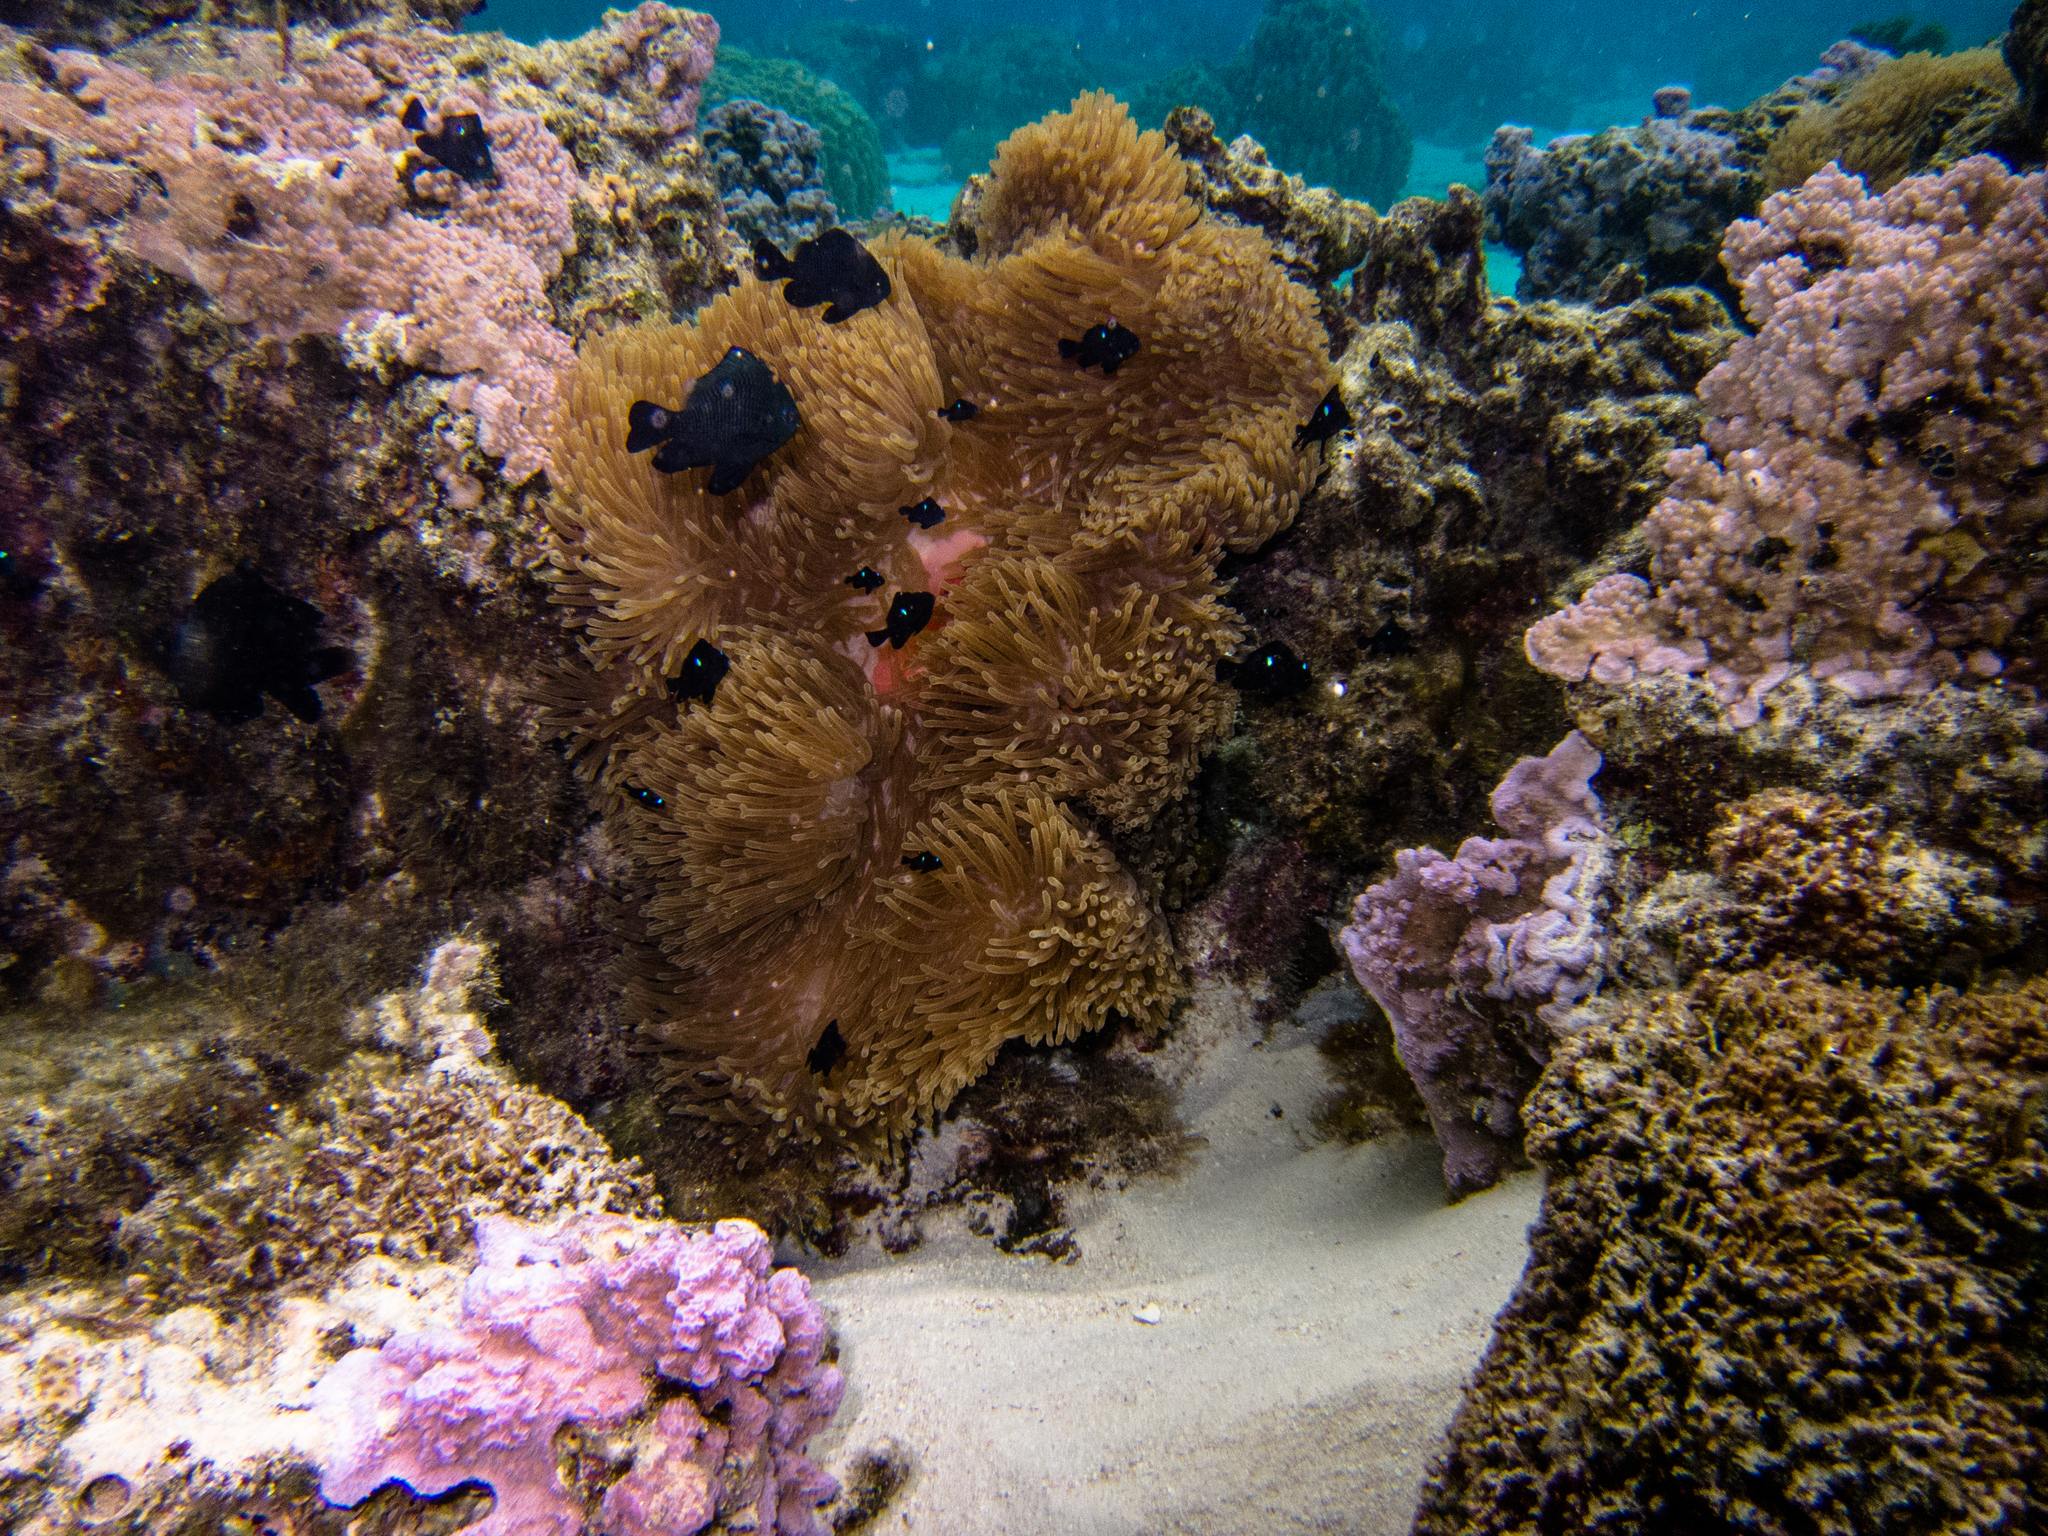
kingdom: Animalia
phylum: Chordata
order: Perciformes
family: Pomacentridae
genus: Dascyllus
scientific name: Dascyllus trimaculatus
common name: Threespot dascyllus
